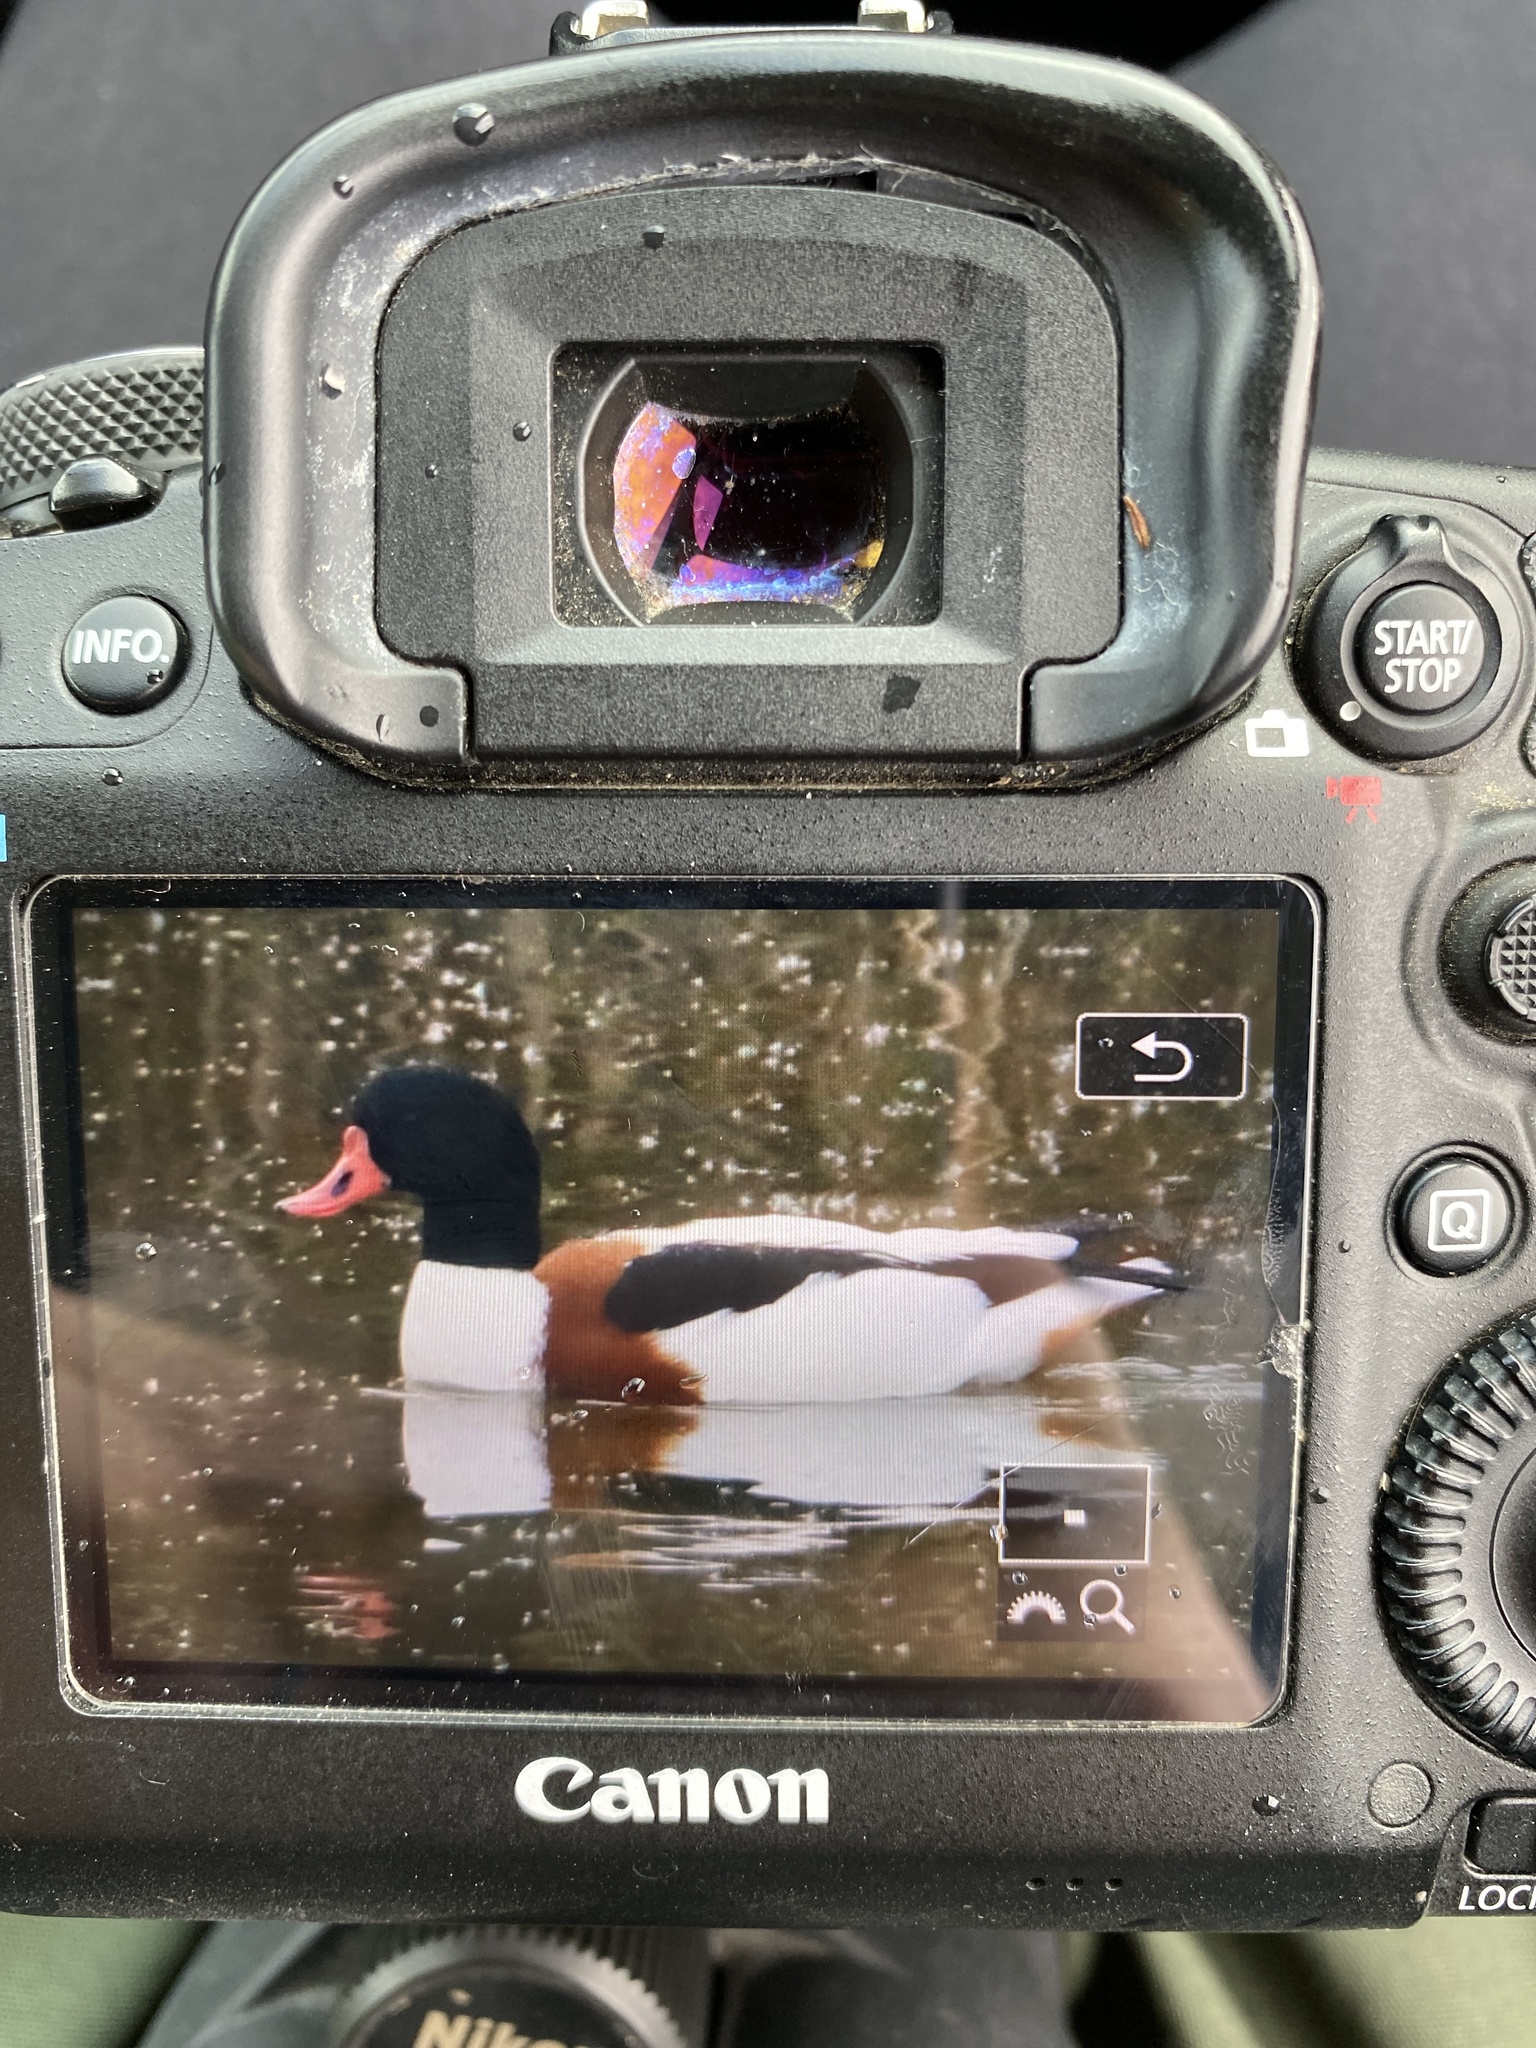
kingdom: Animalia
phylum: Chordata
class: Aves
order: Anseriformes
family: Anatidae
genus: Tadorna
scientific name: Tadorna tadorna
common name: Common shelduck
